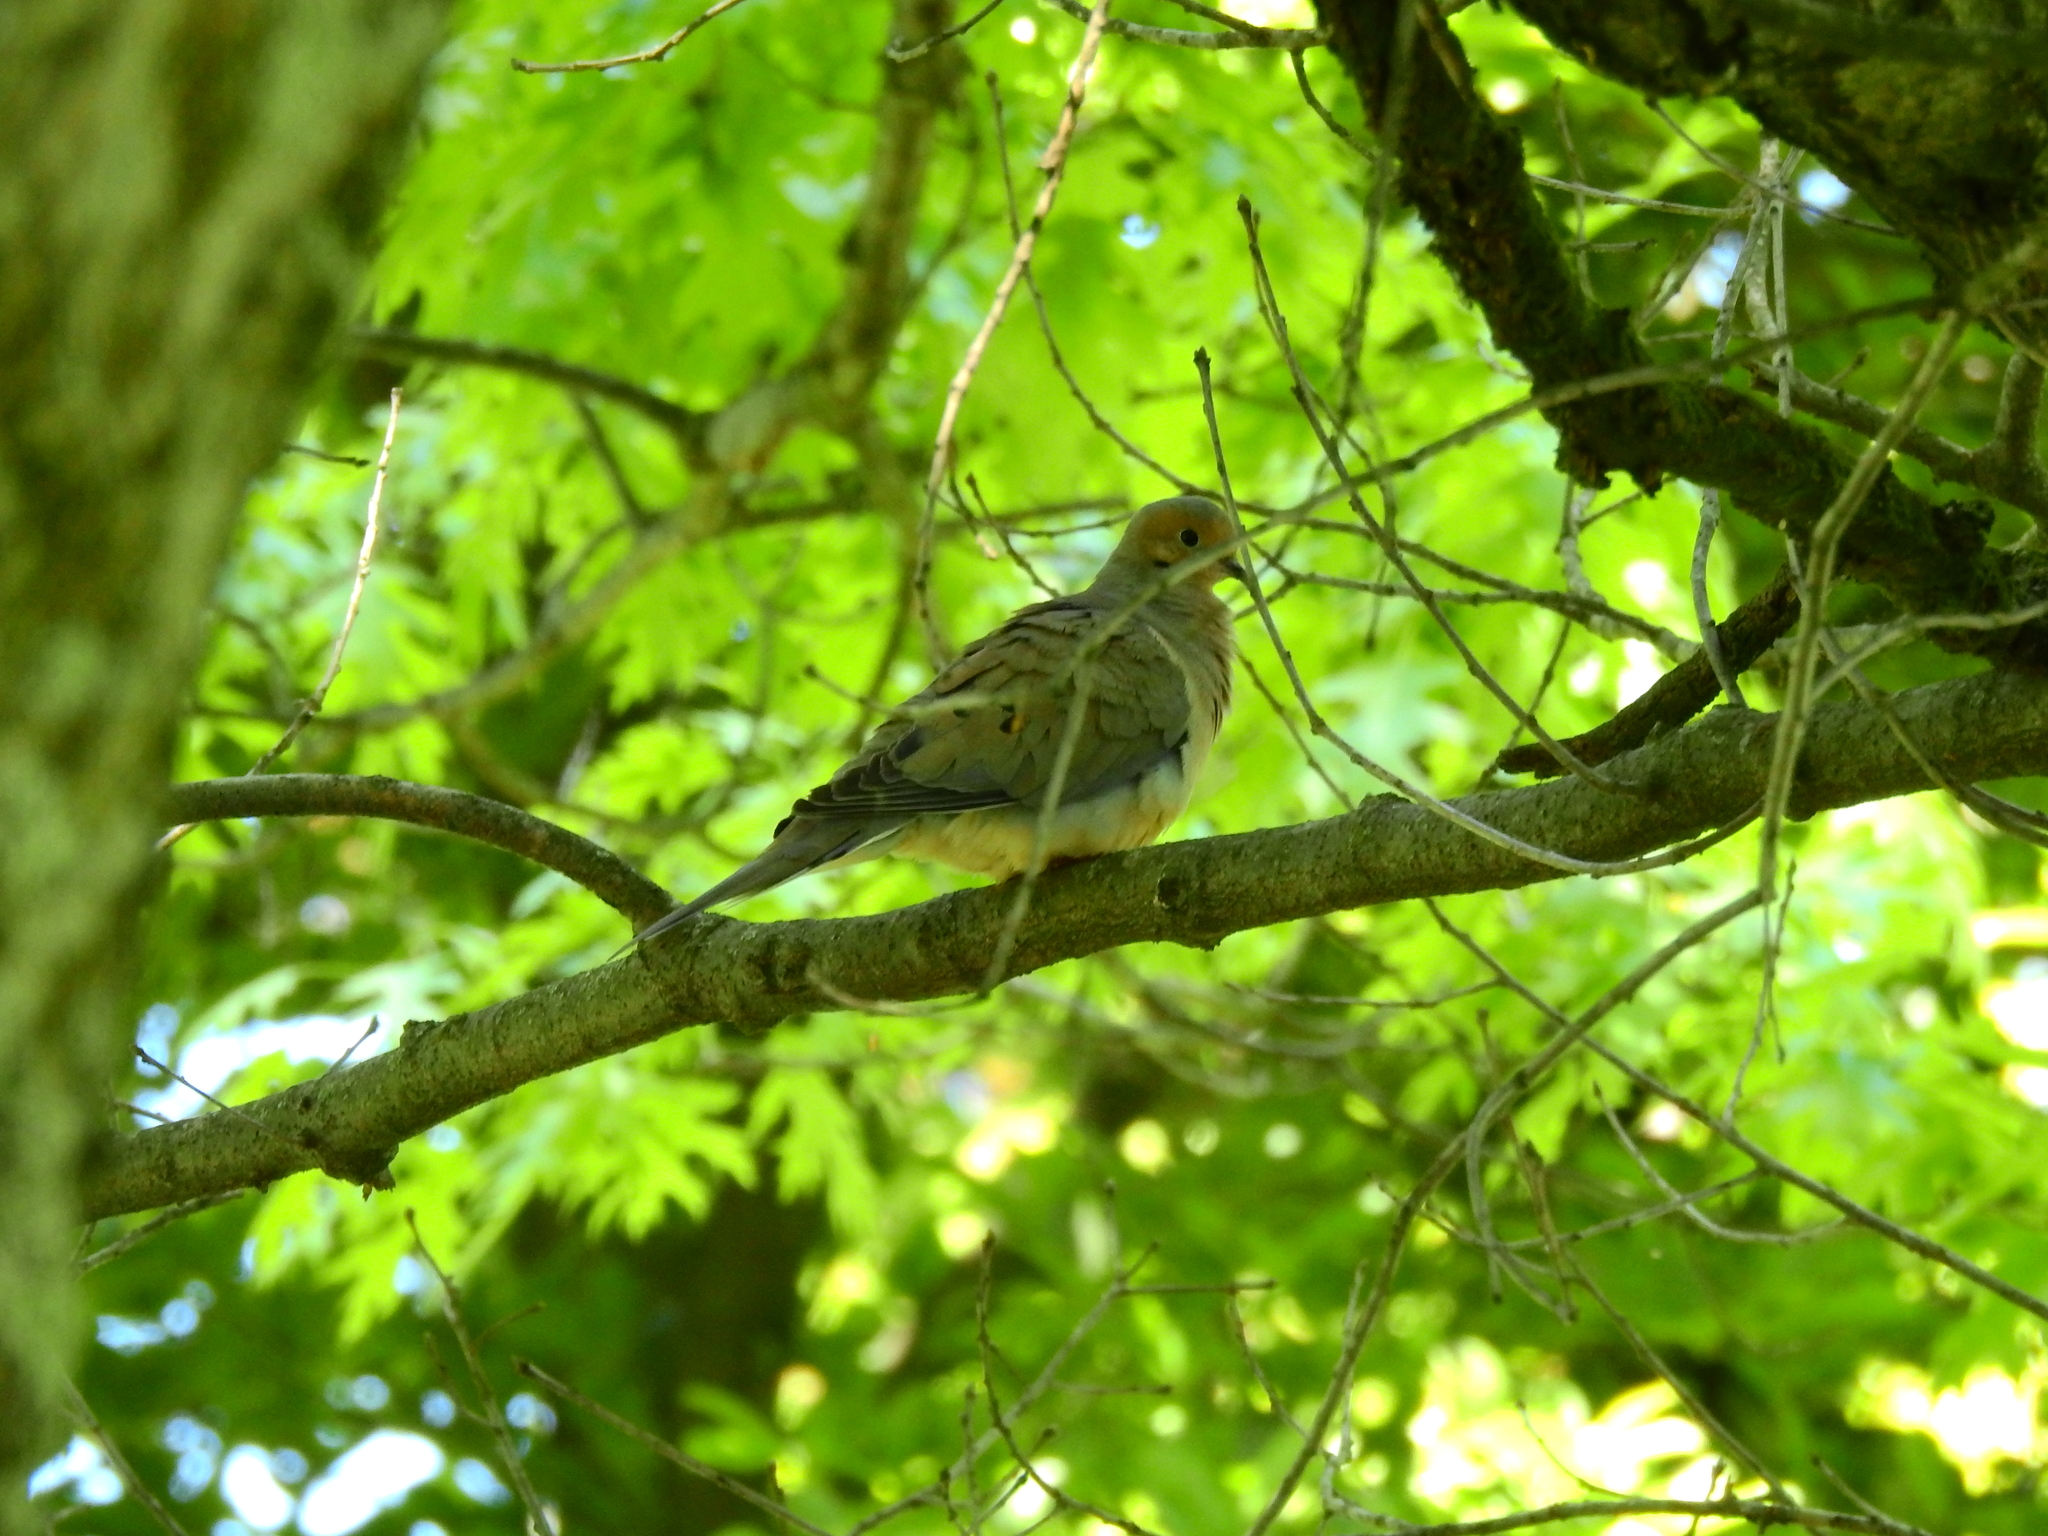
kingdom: Animalia
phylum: Chordata
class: Aves
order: Columbiformes
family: Columbidae
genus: Zenaida
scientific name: Zenaida macroura
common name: Mourning dove
